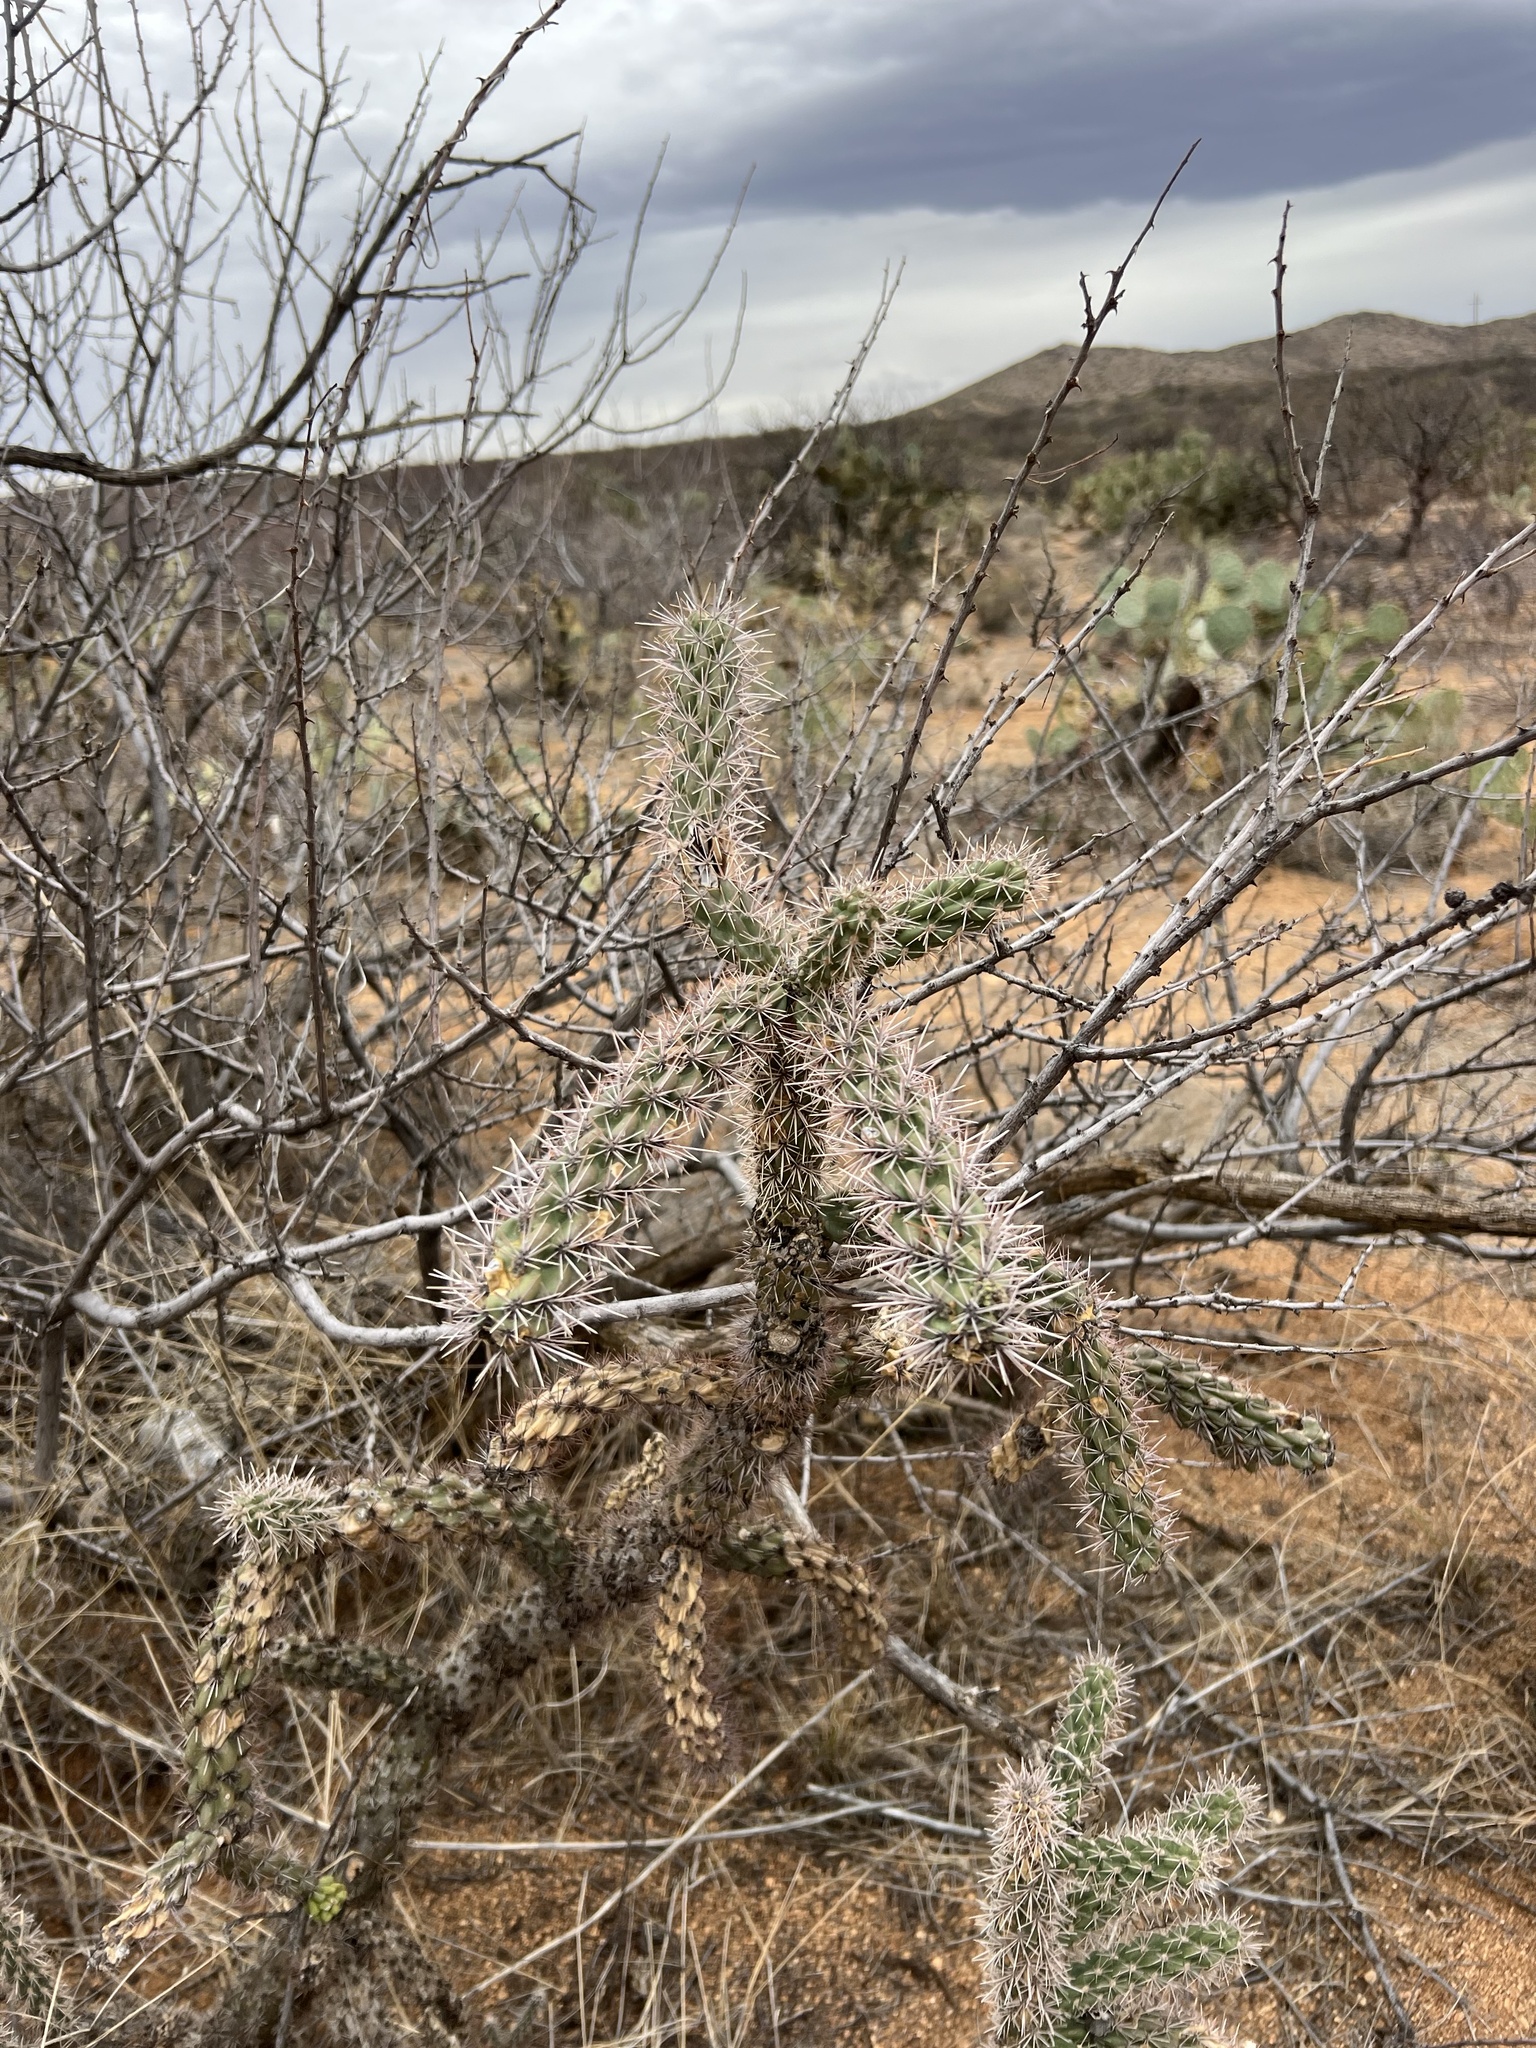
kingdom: Plantae
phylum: Tracheophyta
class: Magnoliopsida
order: Caryophyllales
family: Cactaceae
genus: Cylindropuntia
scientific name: Cylindropuntia imbricata
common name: Candelabrum cactus
